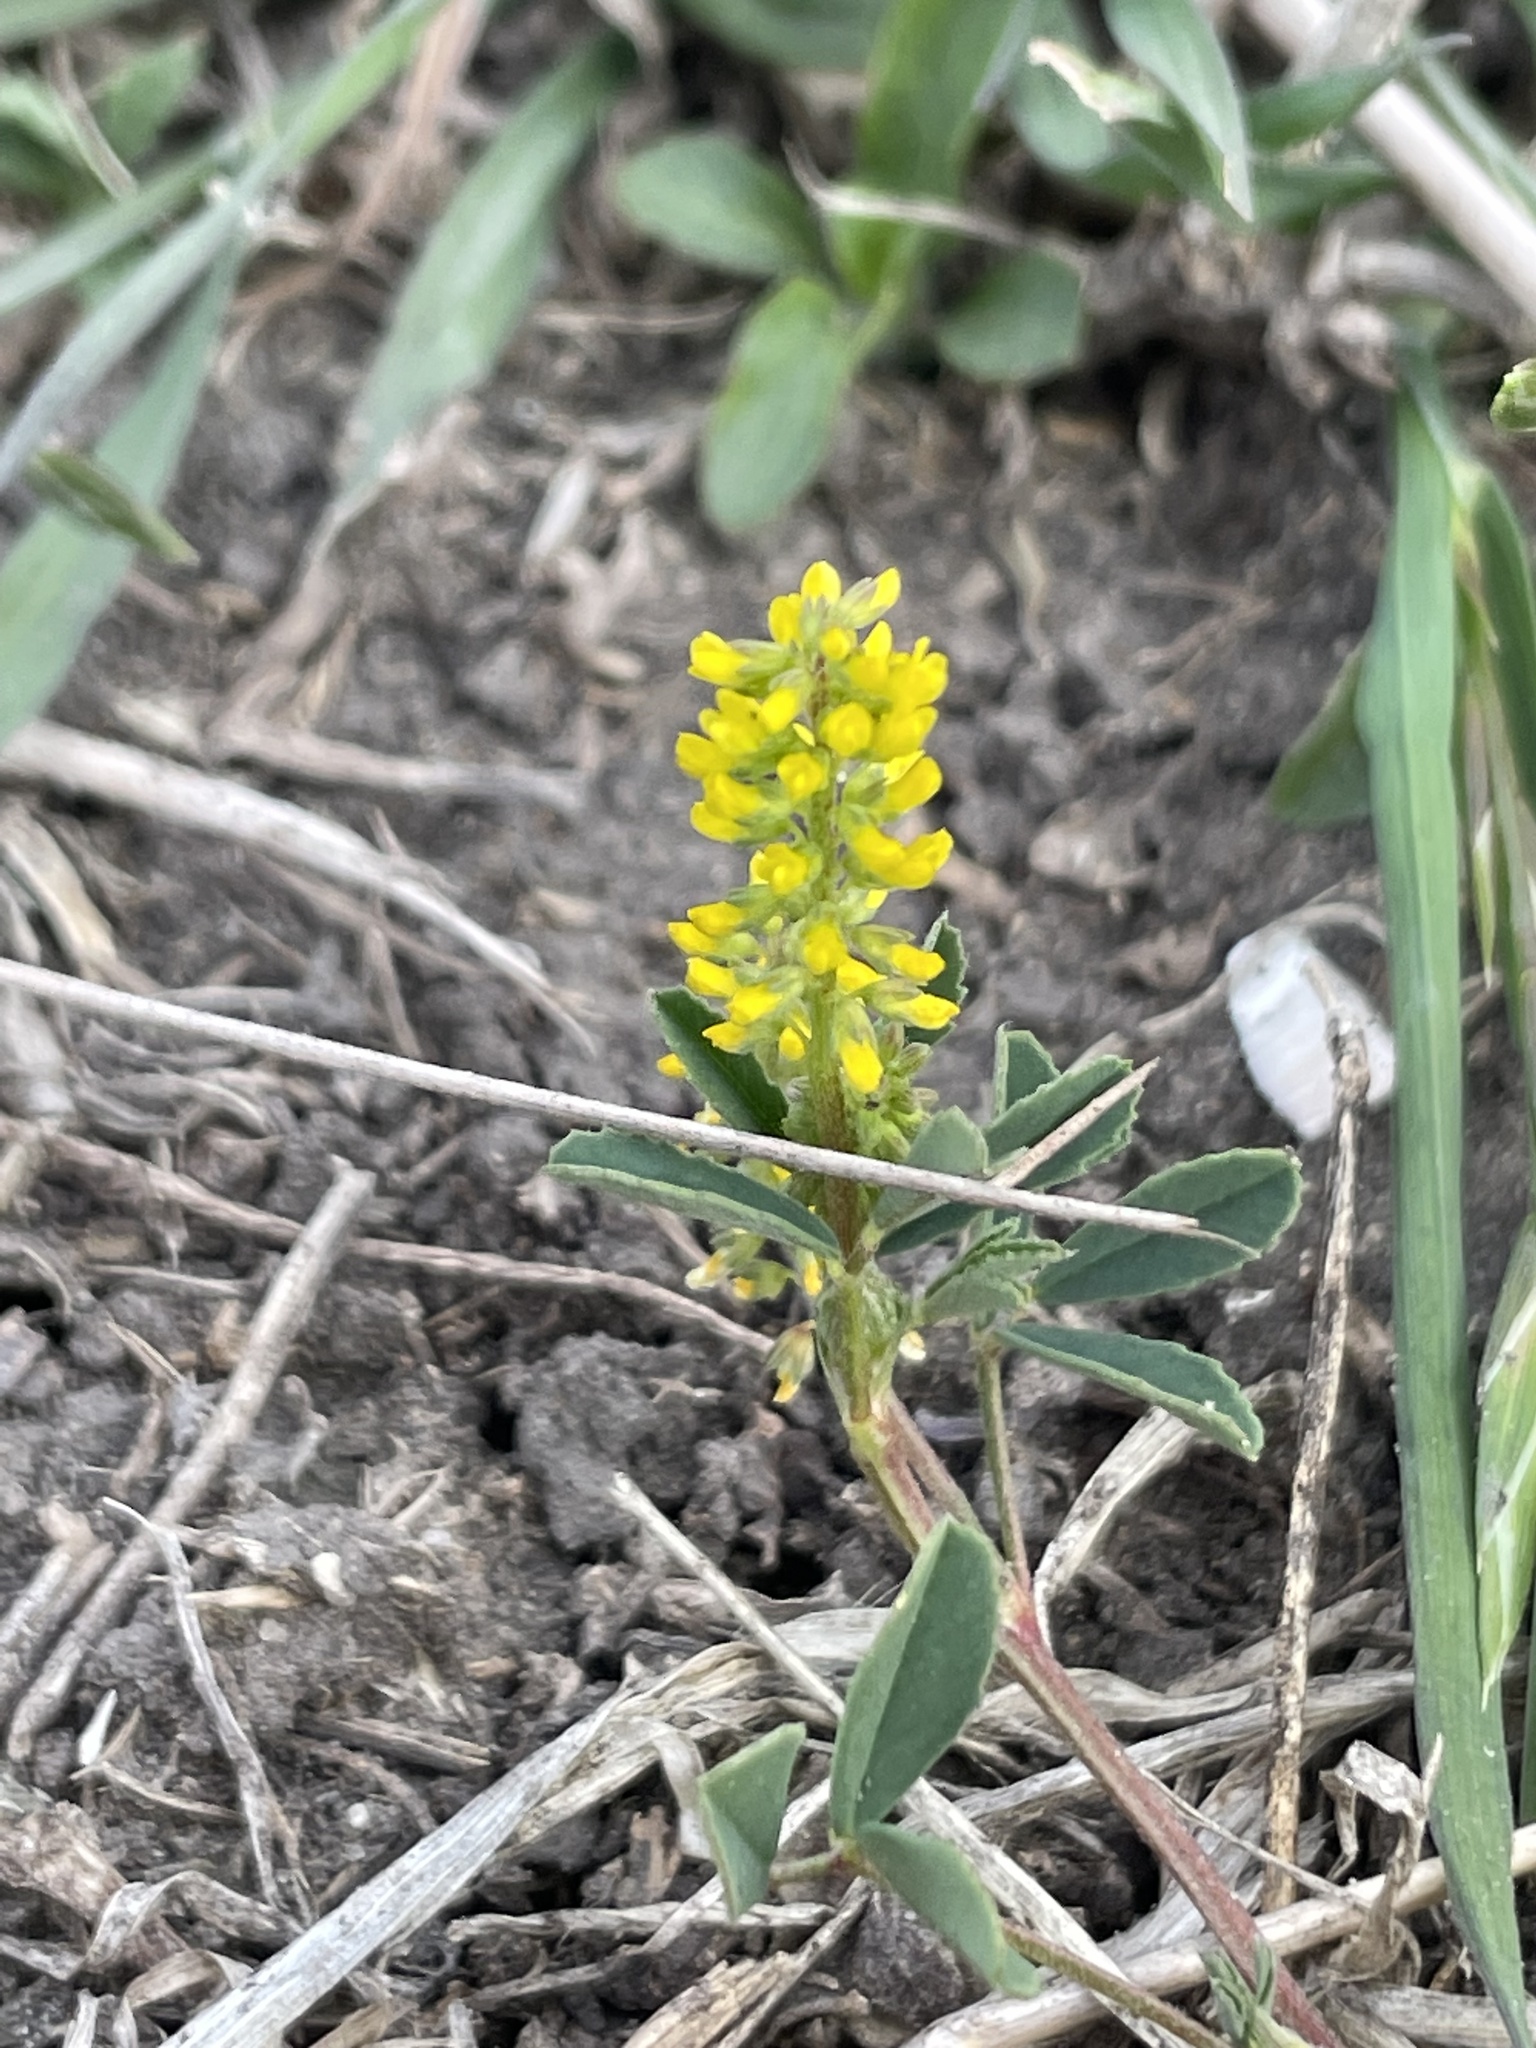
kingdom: Plantae
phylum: Tracheophyta
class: Magnoliopsida
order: Fabales
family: Fabaceae
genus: Melilotus
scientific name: Melilotus indicus
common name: Small melilot
